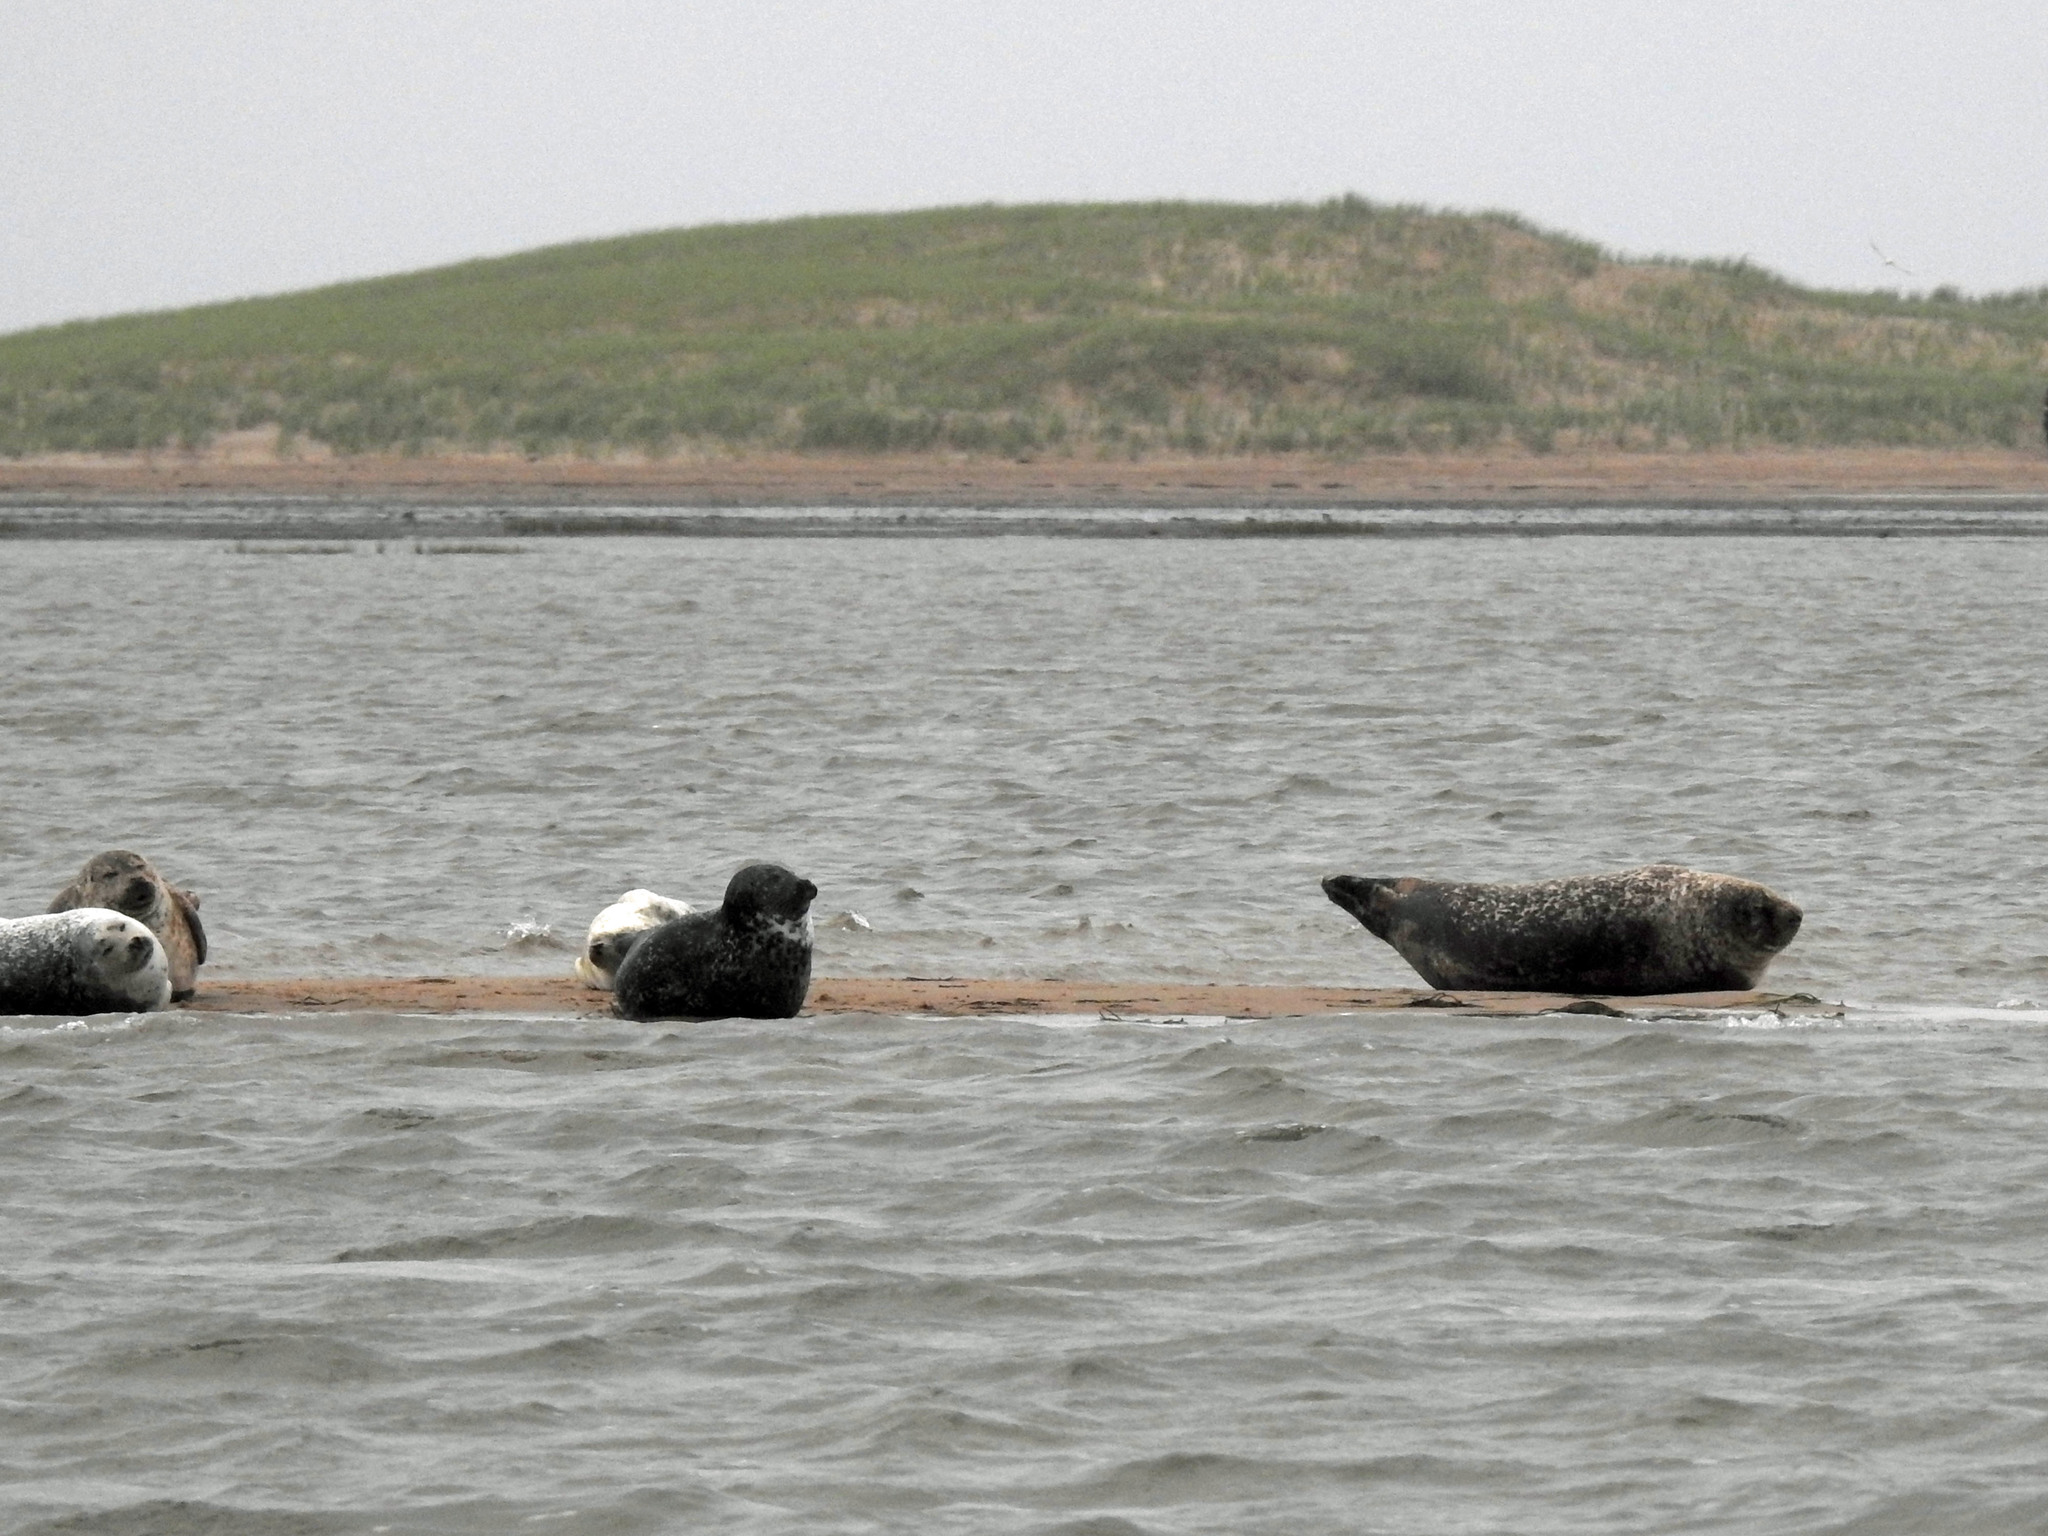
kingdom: Animalia
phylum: Chordata
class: Mammalia
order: Carnivora
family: Phocidae
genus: Phoca
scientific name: Phoca vitulina
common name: Harbor seal
